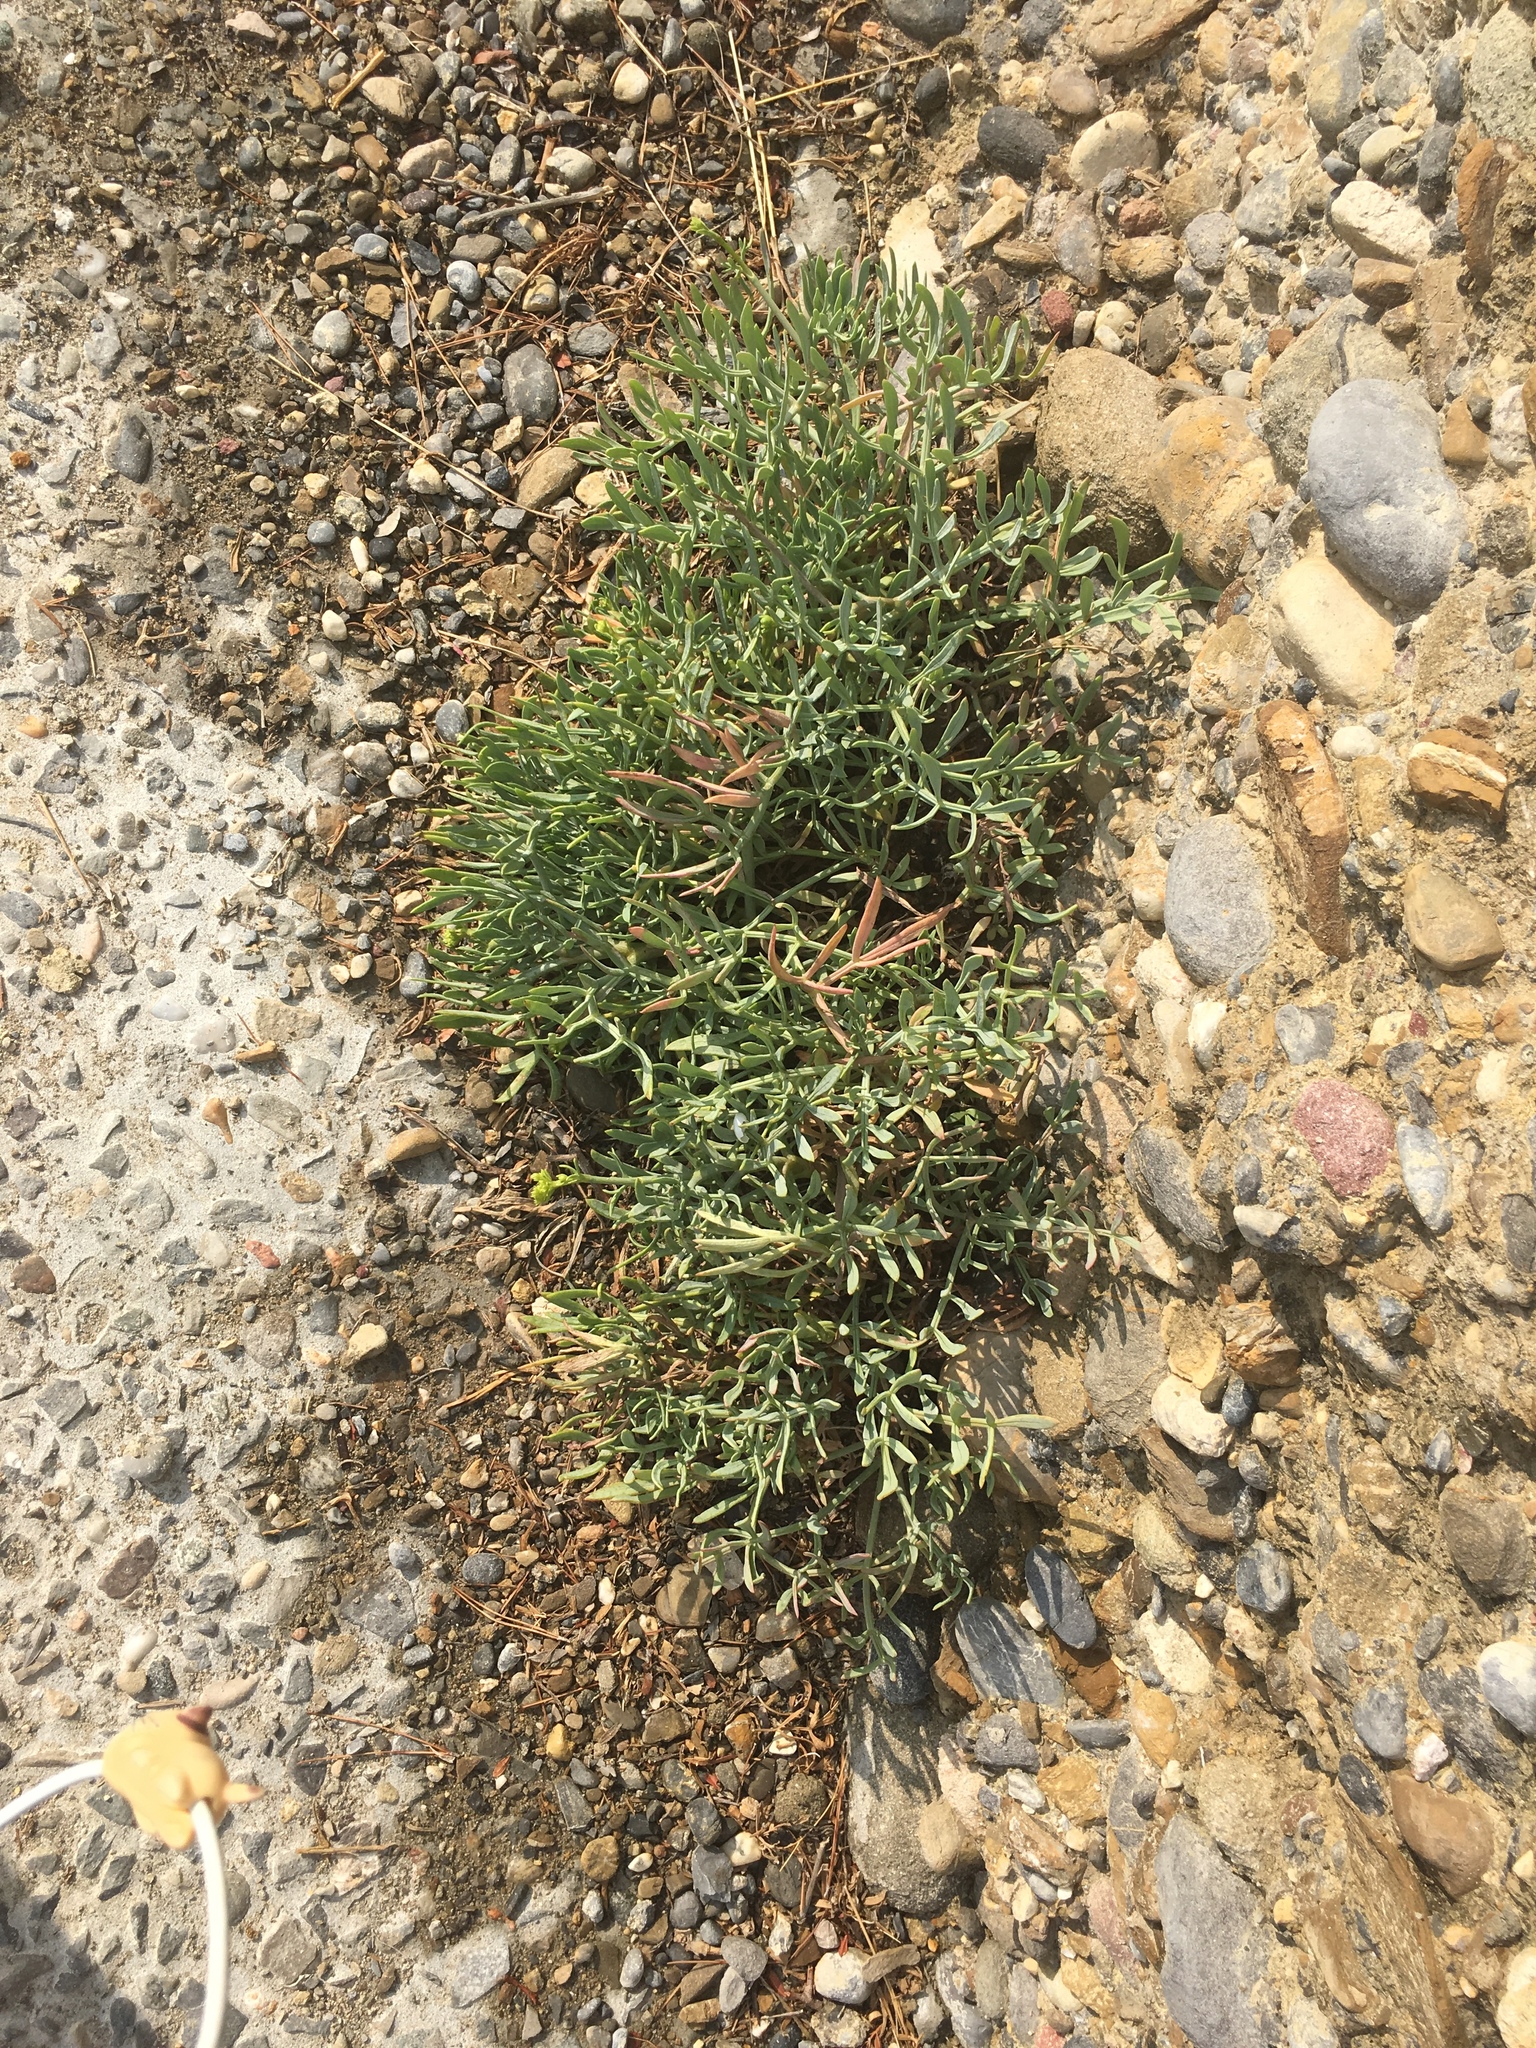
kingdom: Plantae
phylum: Tracheophyta
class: Magnoliopsida
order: Apiales
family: Apiaceae
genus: Crithmum
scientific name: Crithmum maritimum
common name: Rock samphire
